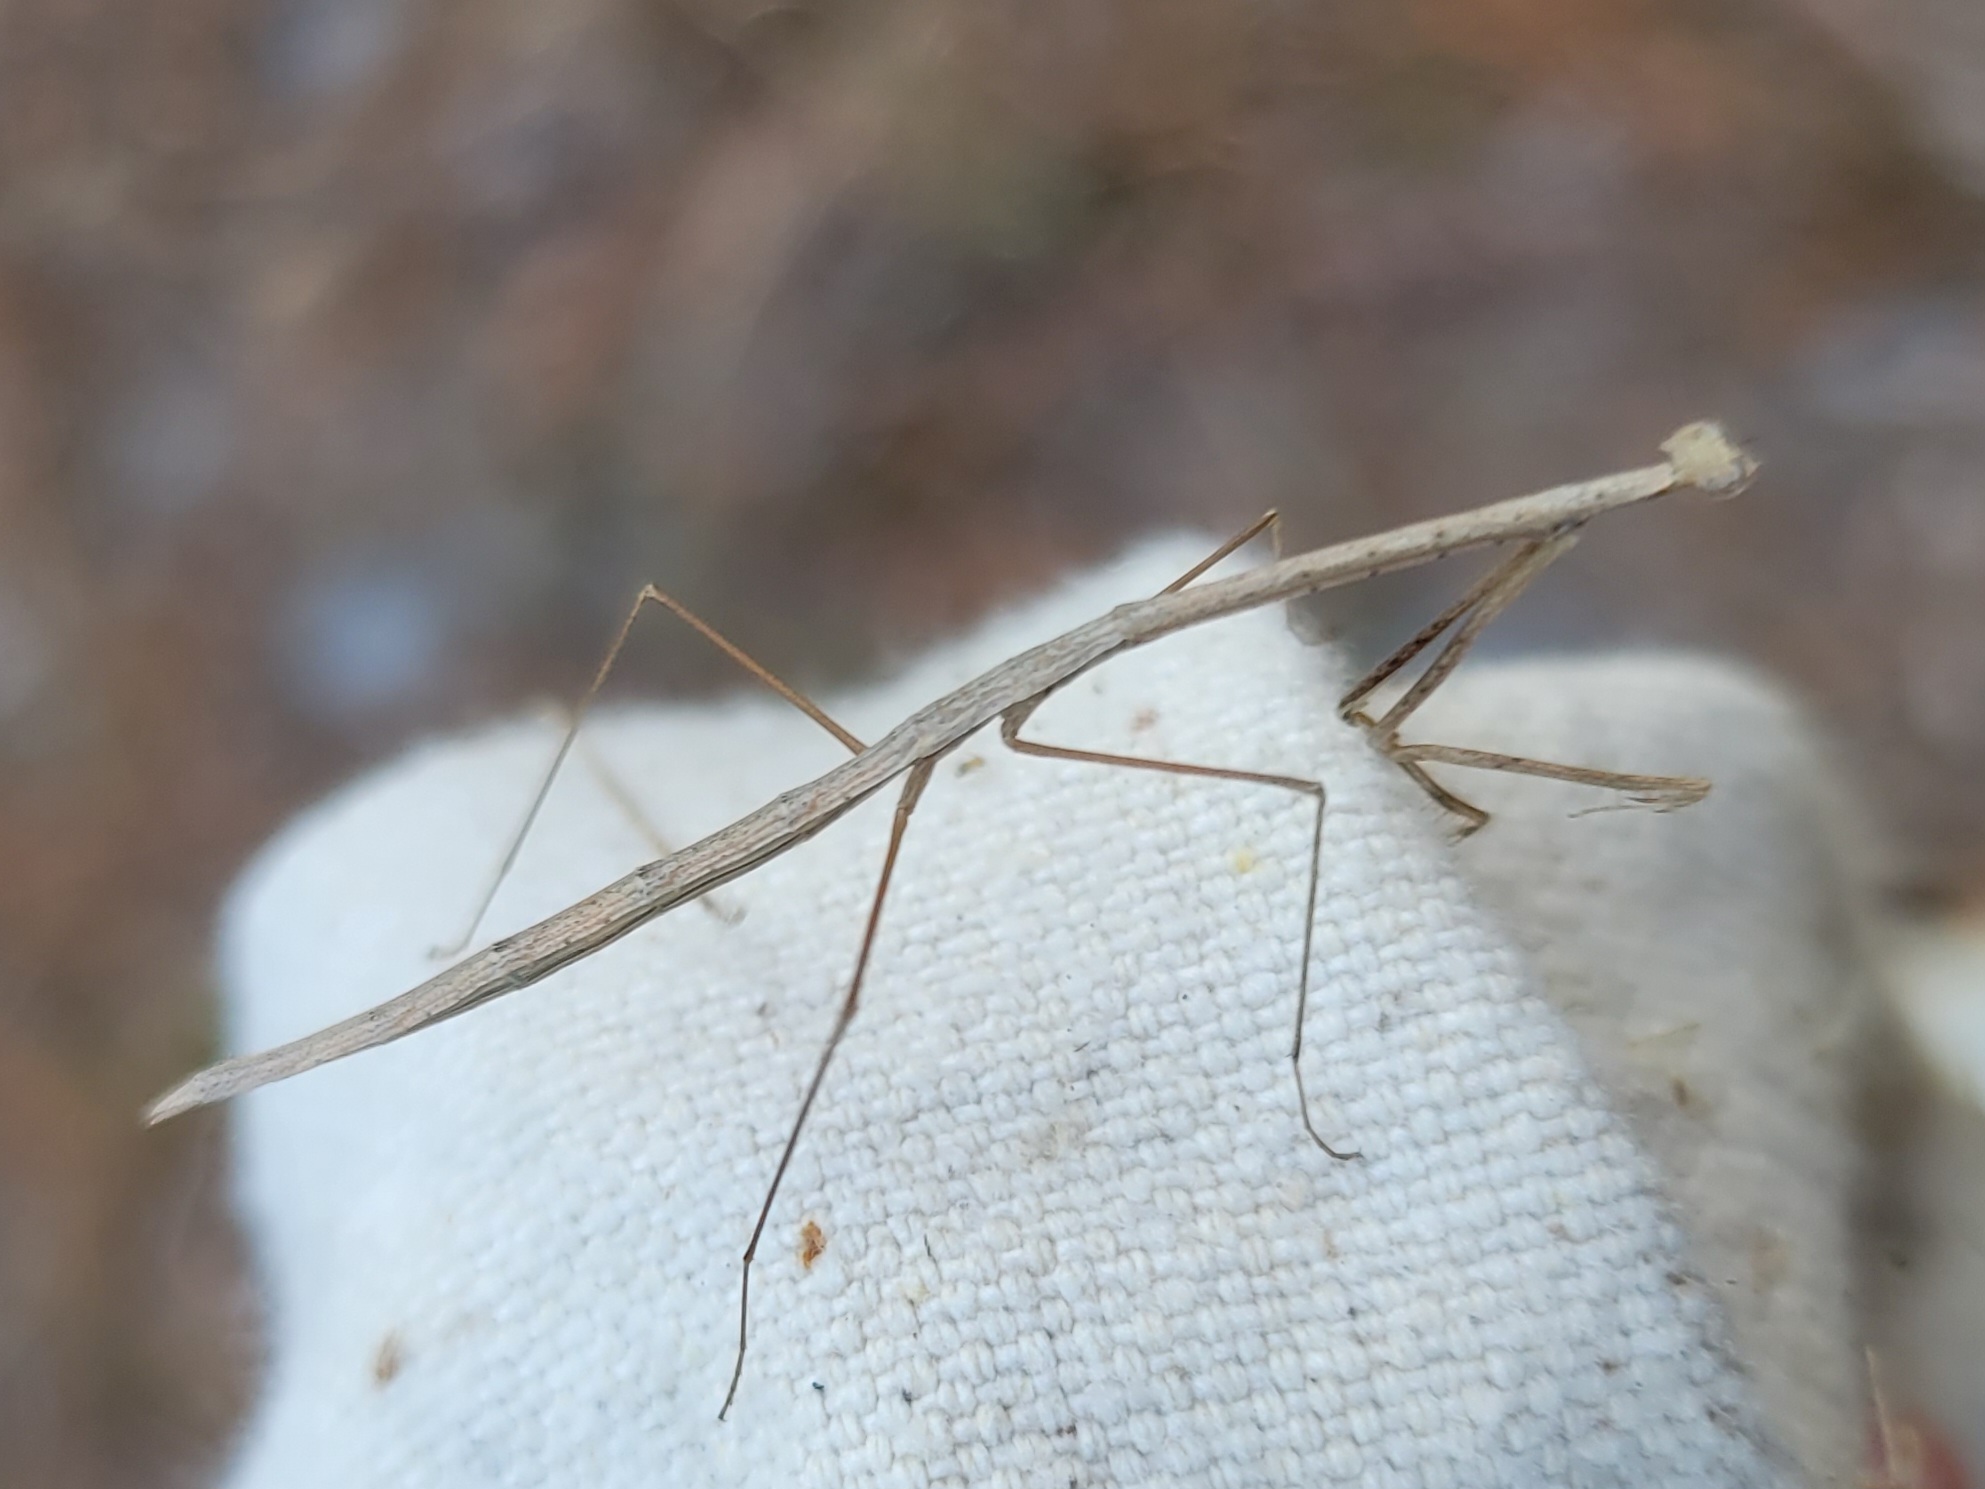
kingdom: Animalia
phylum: Arthropoda
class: Insecta
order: Mantodea
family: Thespidae
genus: Thesprotia
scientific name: Thesprotia graminis
